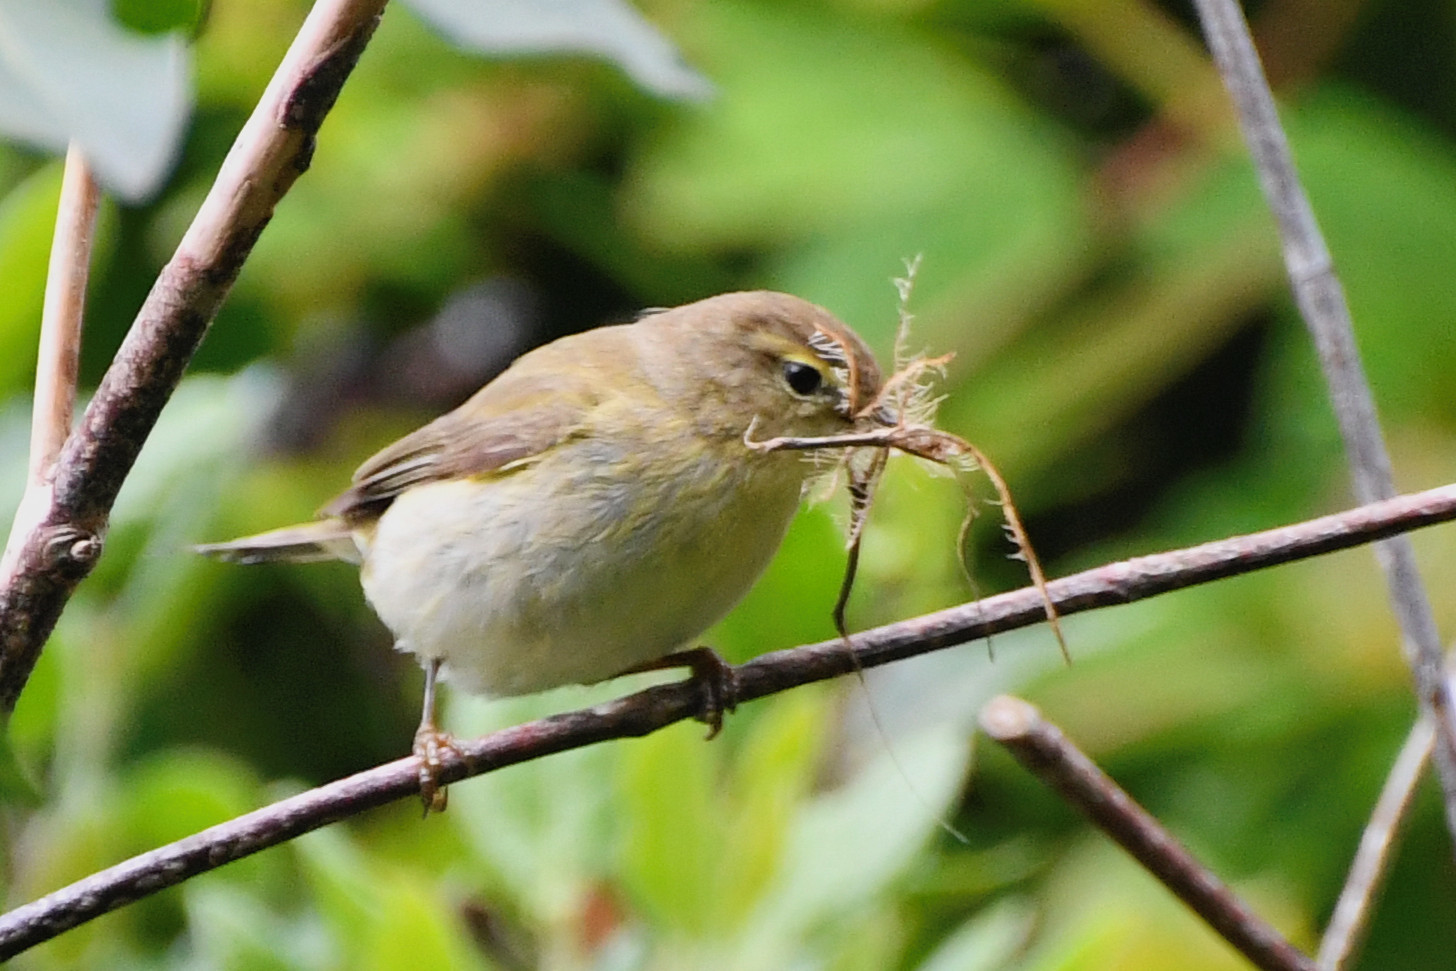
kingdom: Animalia
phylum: Chordata
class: Aves
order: Passeriformes
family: Phylloscopidae
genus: Phylloscopus
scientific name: Phylloscopus collybita
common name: Common chiffchaff
